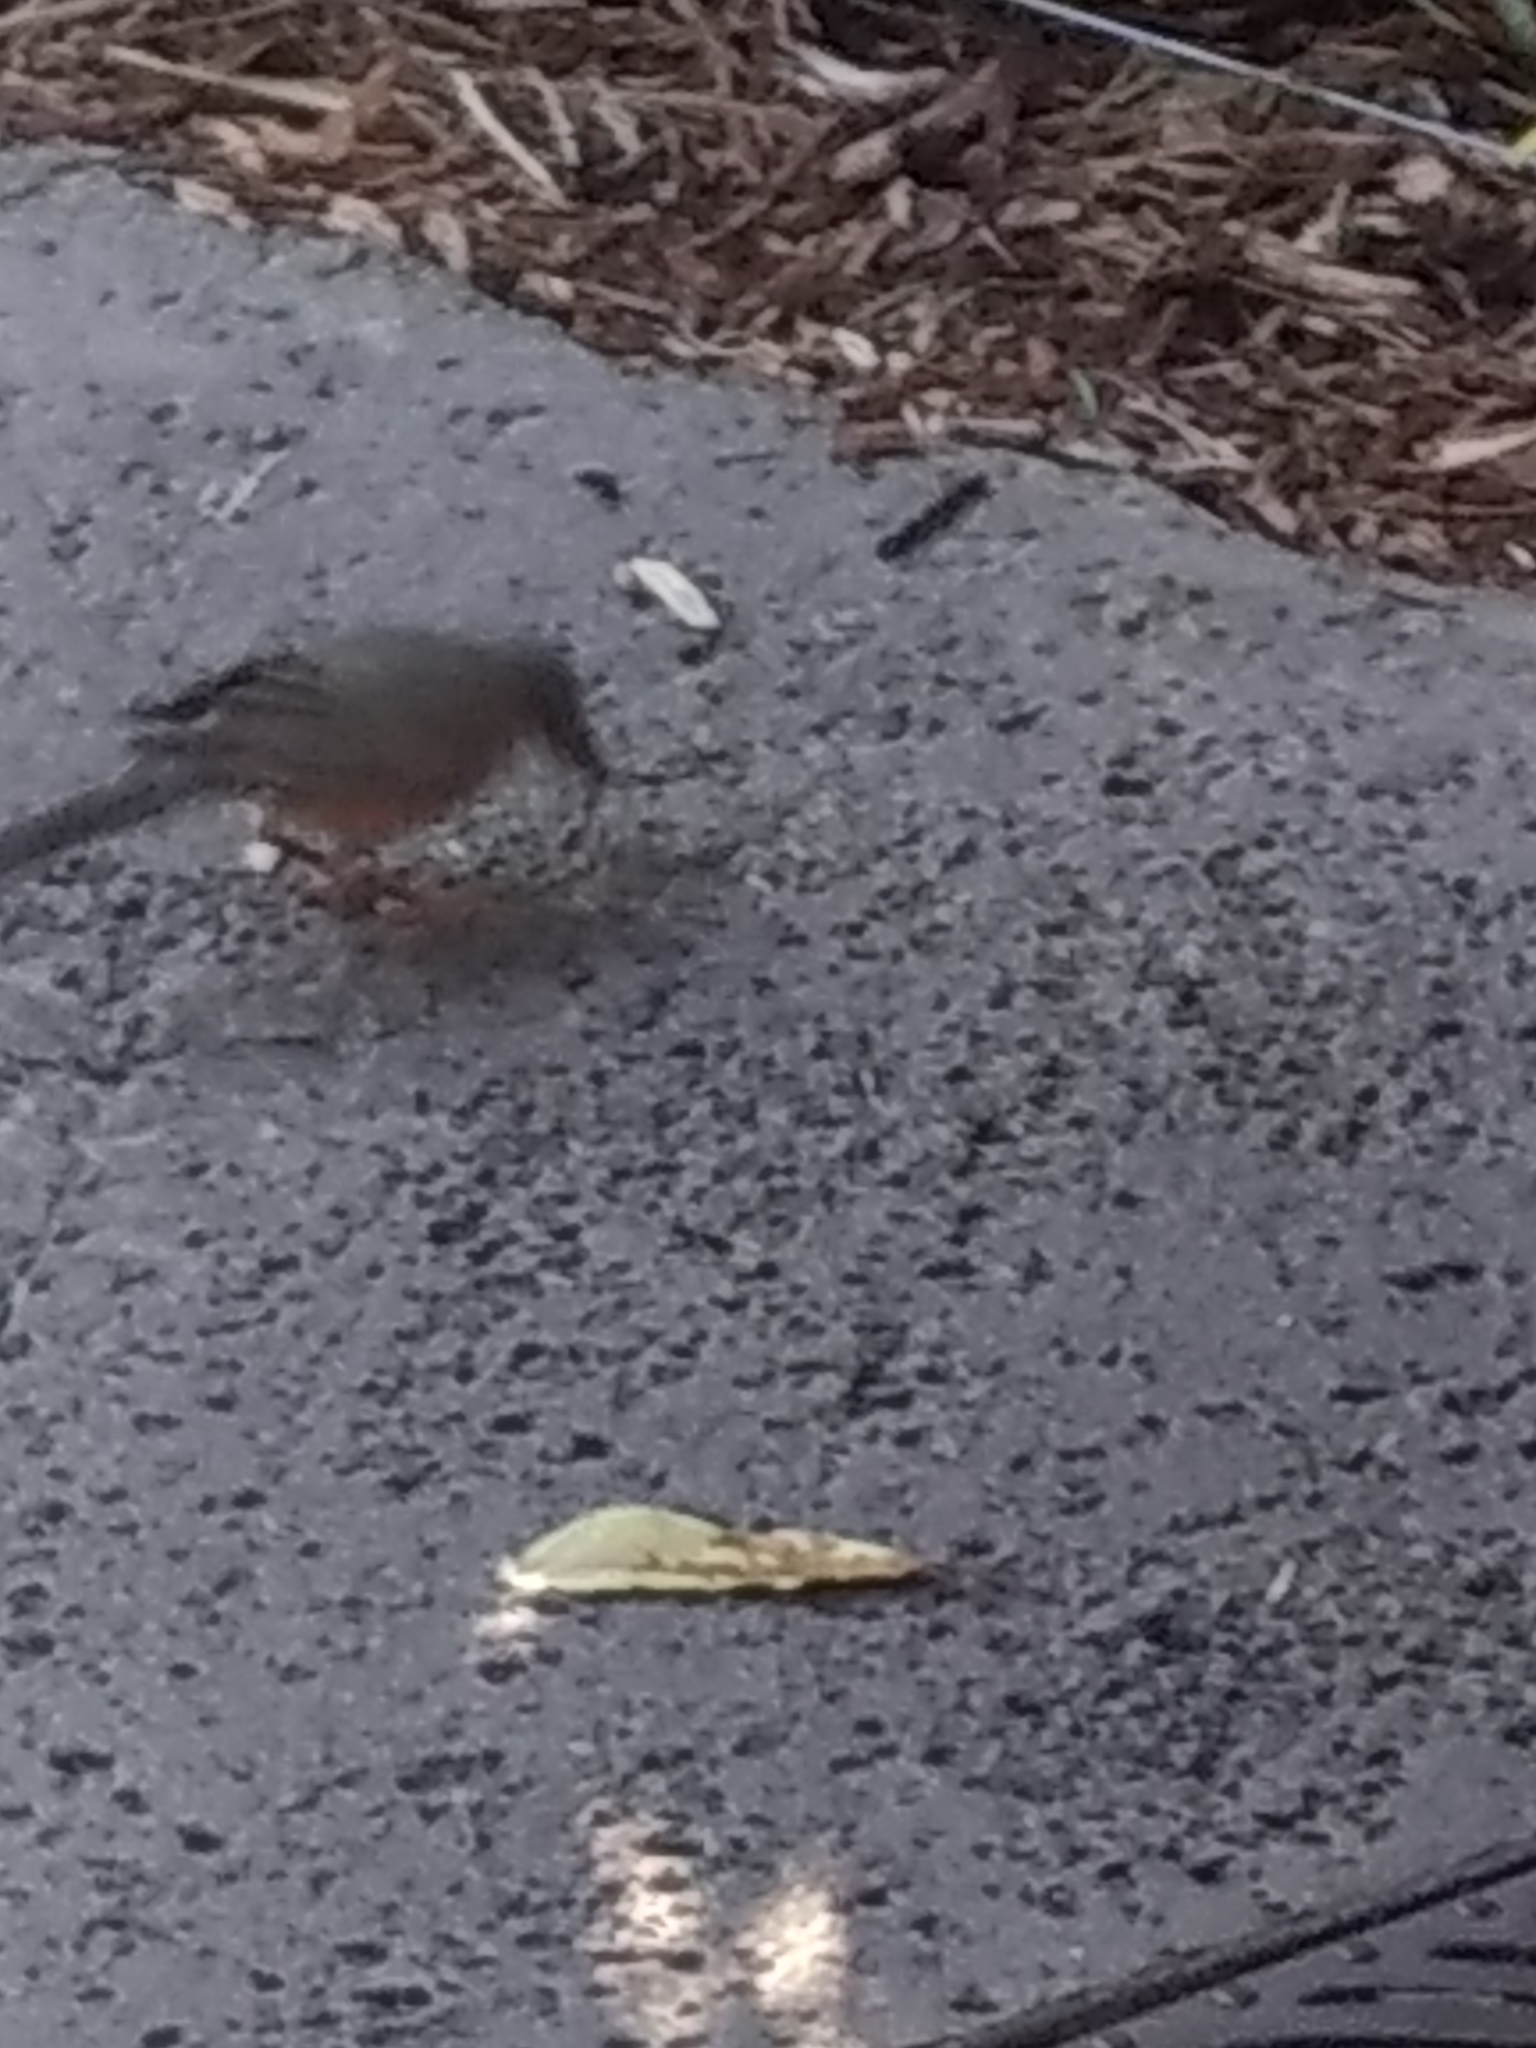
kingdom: Animalia
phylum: Chordata
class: Aves
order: Passeriformes
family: Turdidae
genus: Turdus
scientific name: Turdus migratorius
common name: American robin
